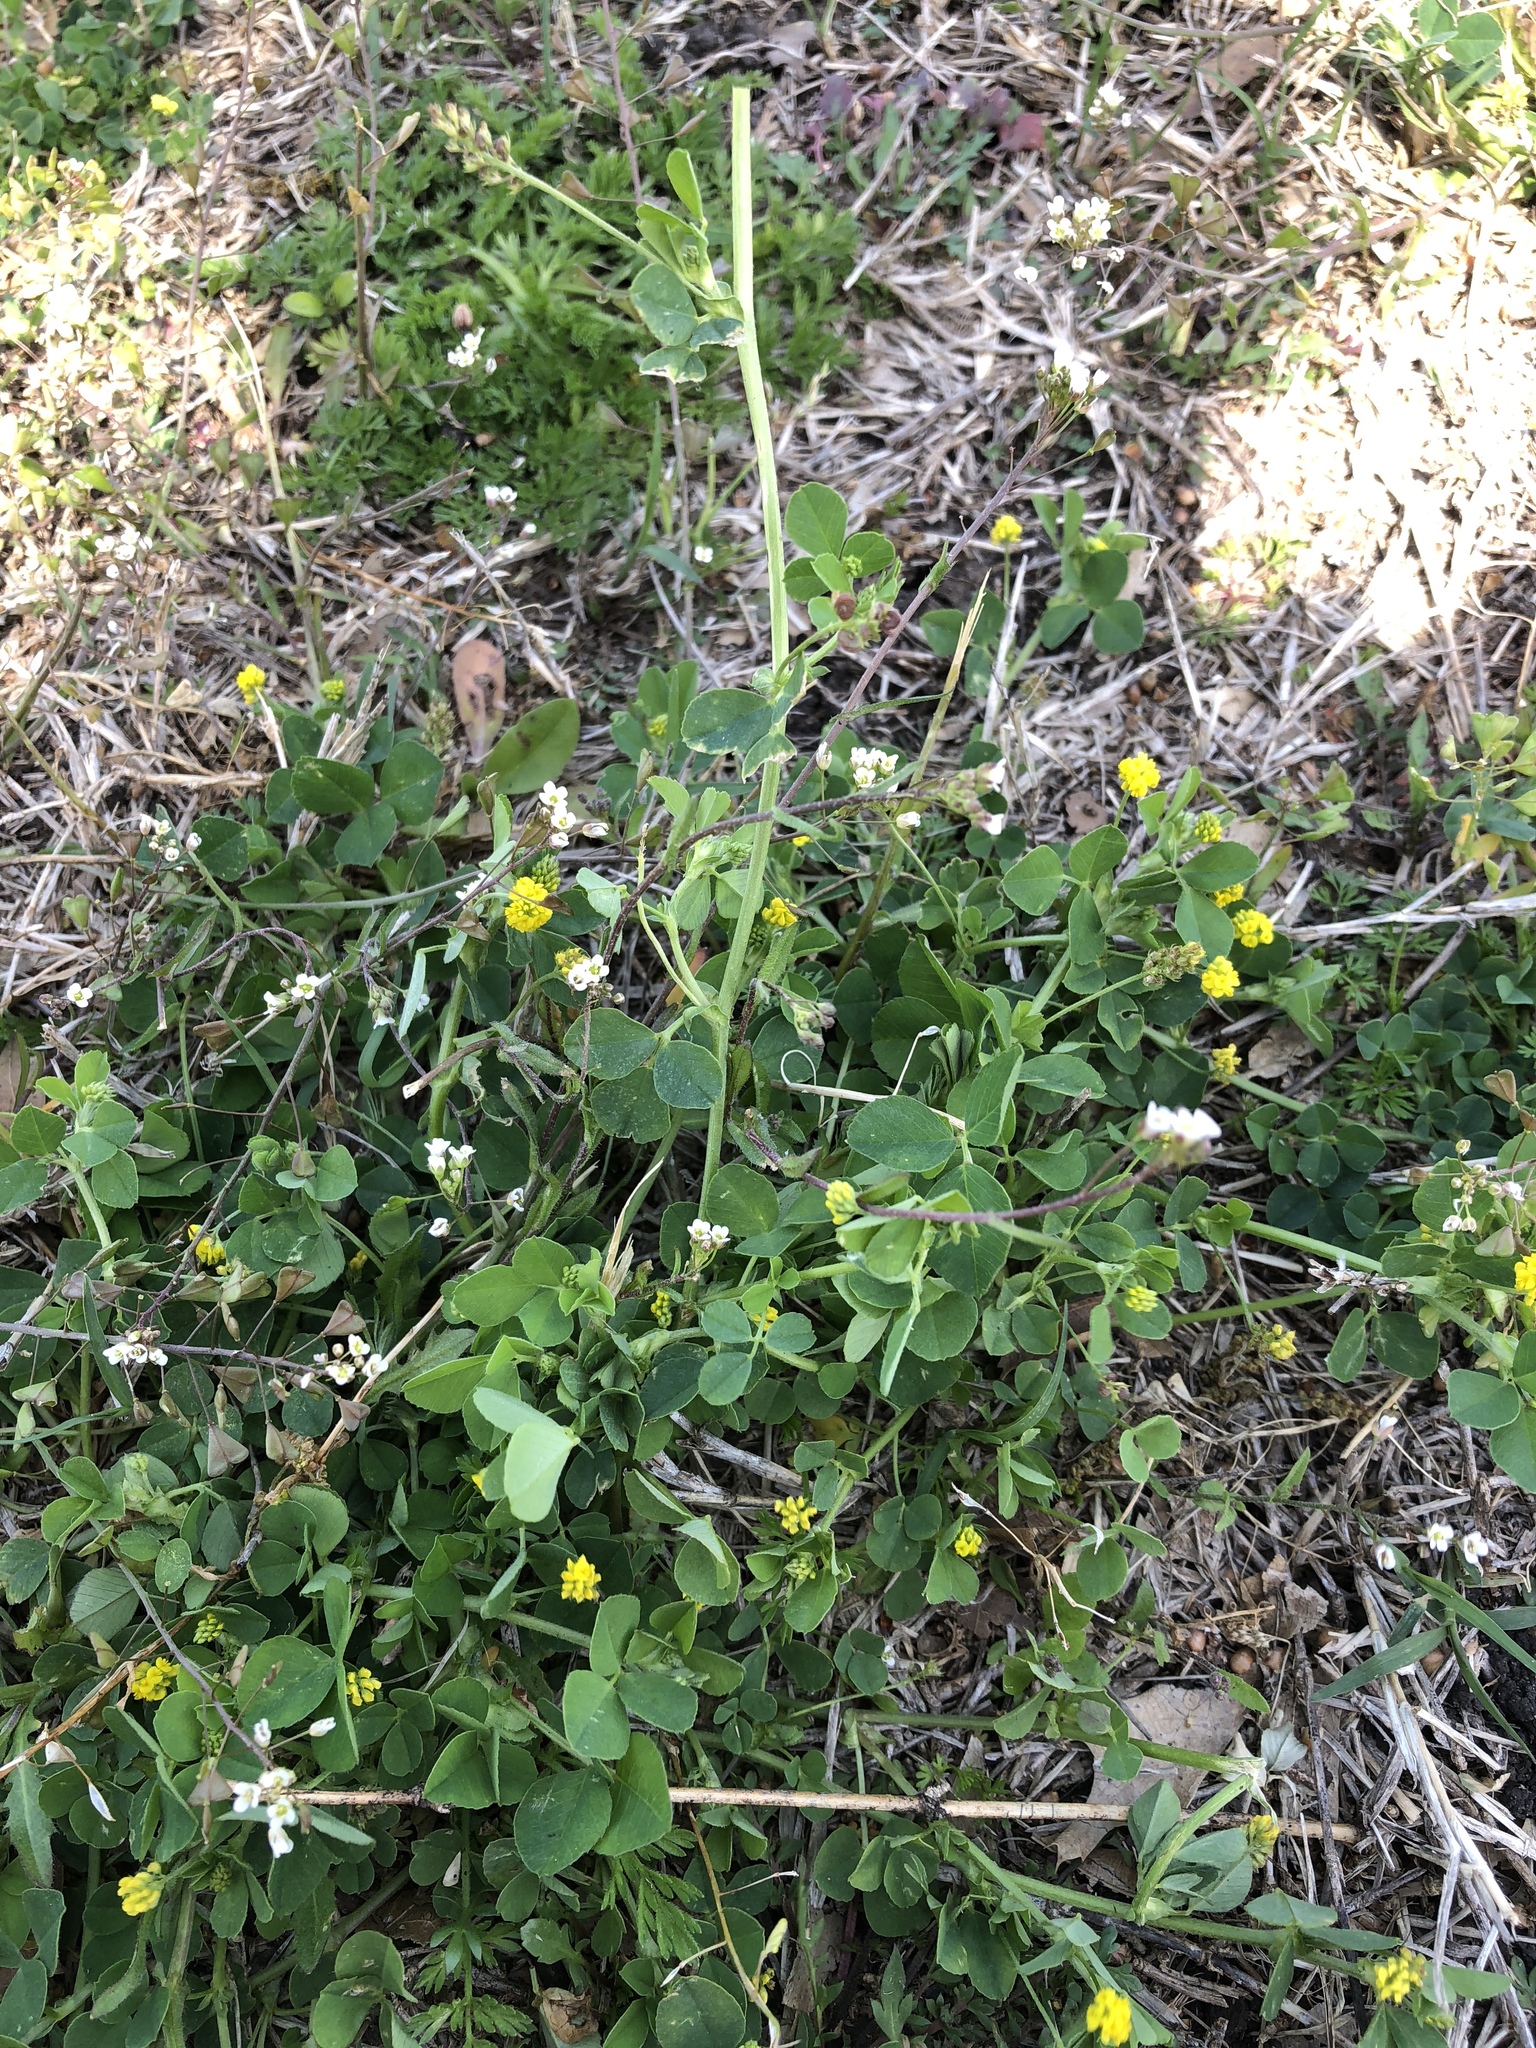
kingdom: Plantae
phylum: Tracheophyta
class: Magnoliopsida
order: Fabales
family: Fabaceae
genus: Medicago
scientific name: Medicago lupulina
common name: Black medick
